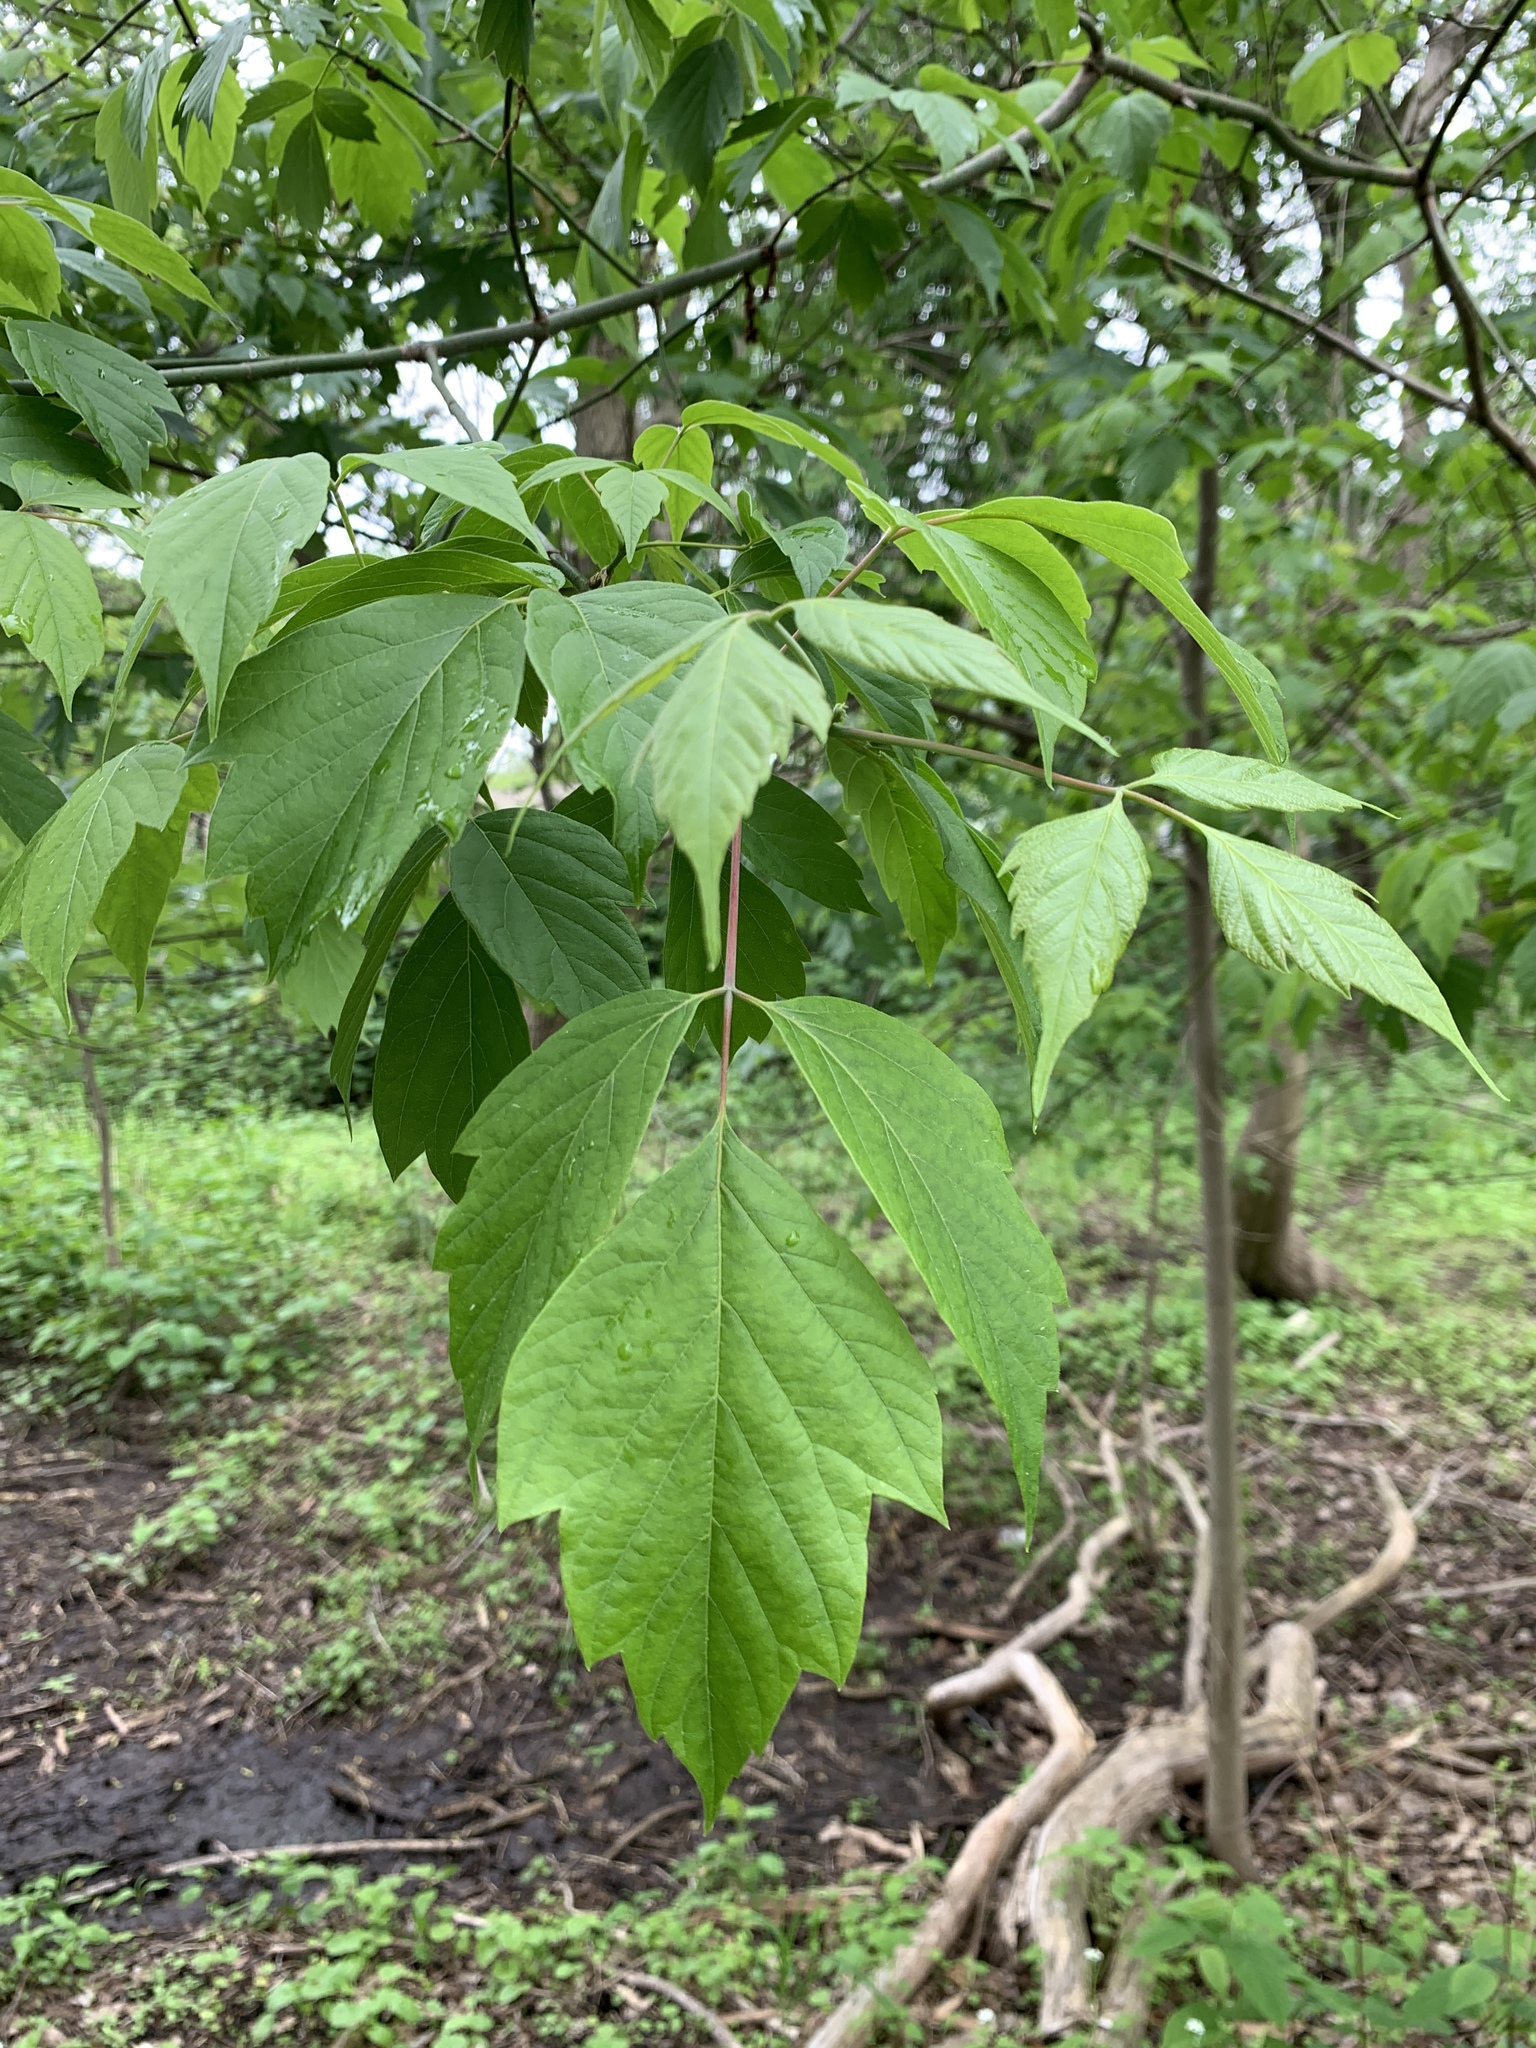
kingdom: Plantae
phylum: Tracheophyta
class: Magnoliopsida
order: Sapindales
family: Sapindaceae
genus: Acer
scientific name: Acer negundo
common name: Ashleaf maple
